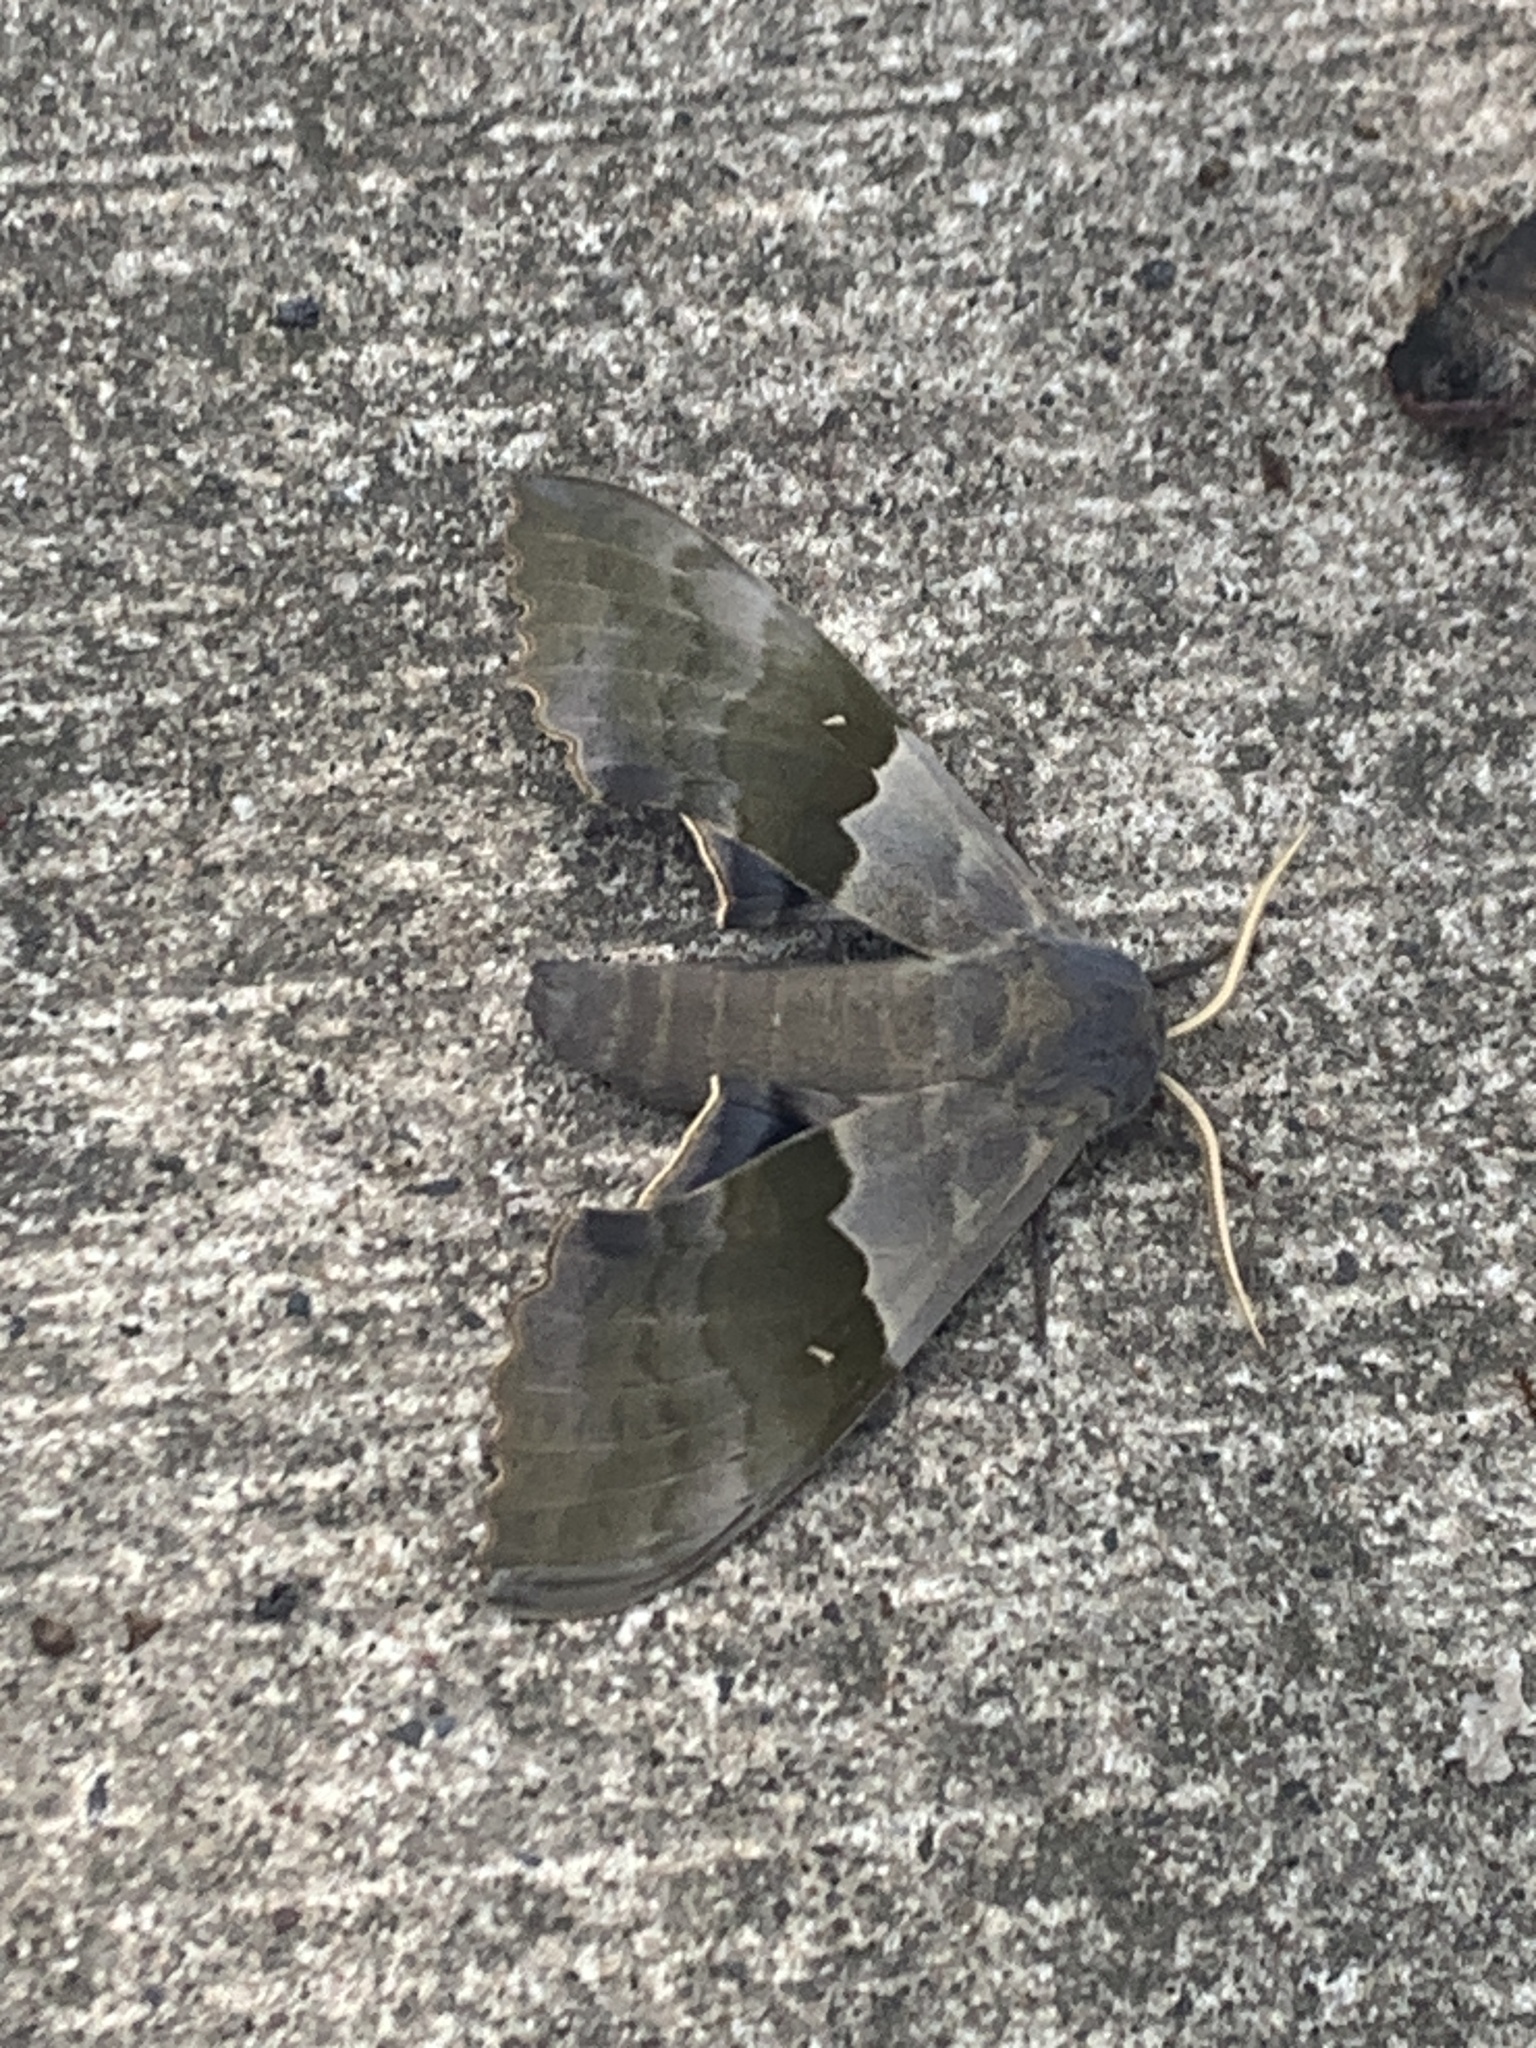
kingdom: Animalia
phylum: Arthropoda
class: Insecta
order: Lepidoptera
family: Sphingidae
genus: Pachysphinx
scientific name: Pachysphinx modesta
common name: Big poplar sphinx
